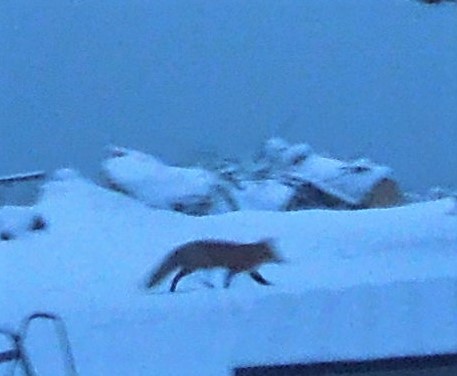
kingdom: Animalia
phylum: Chordata
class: Mammalia
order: Carnivora
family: Canidae
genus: Vulpes
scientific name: Vulpes vulpes
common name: Red fox
